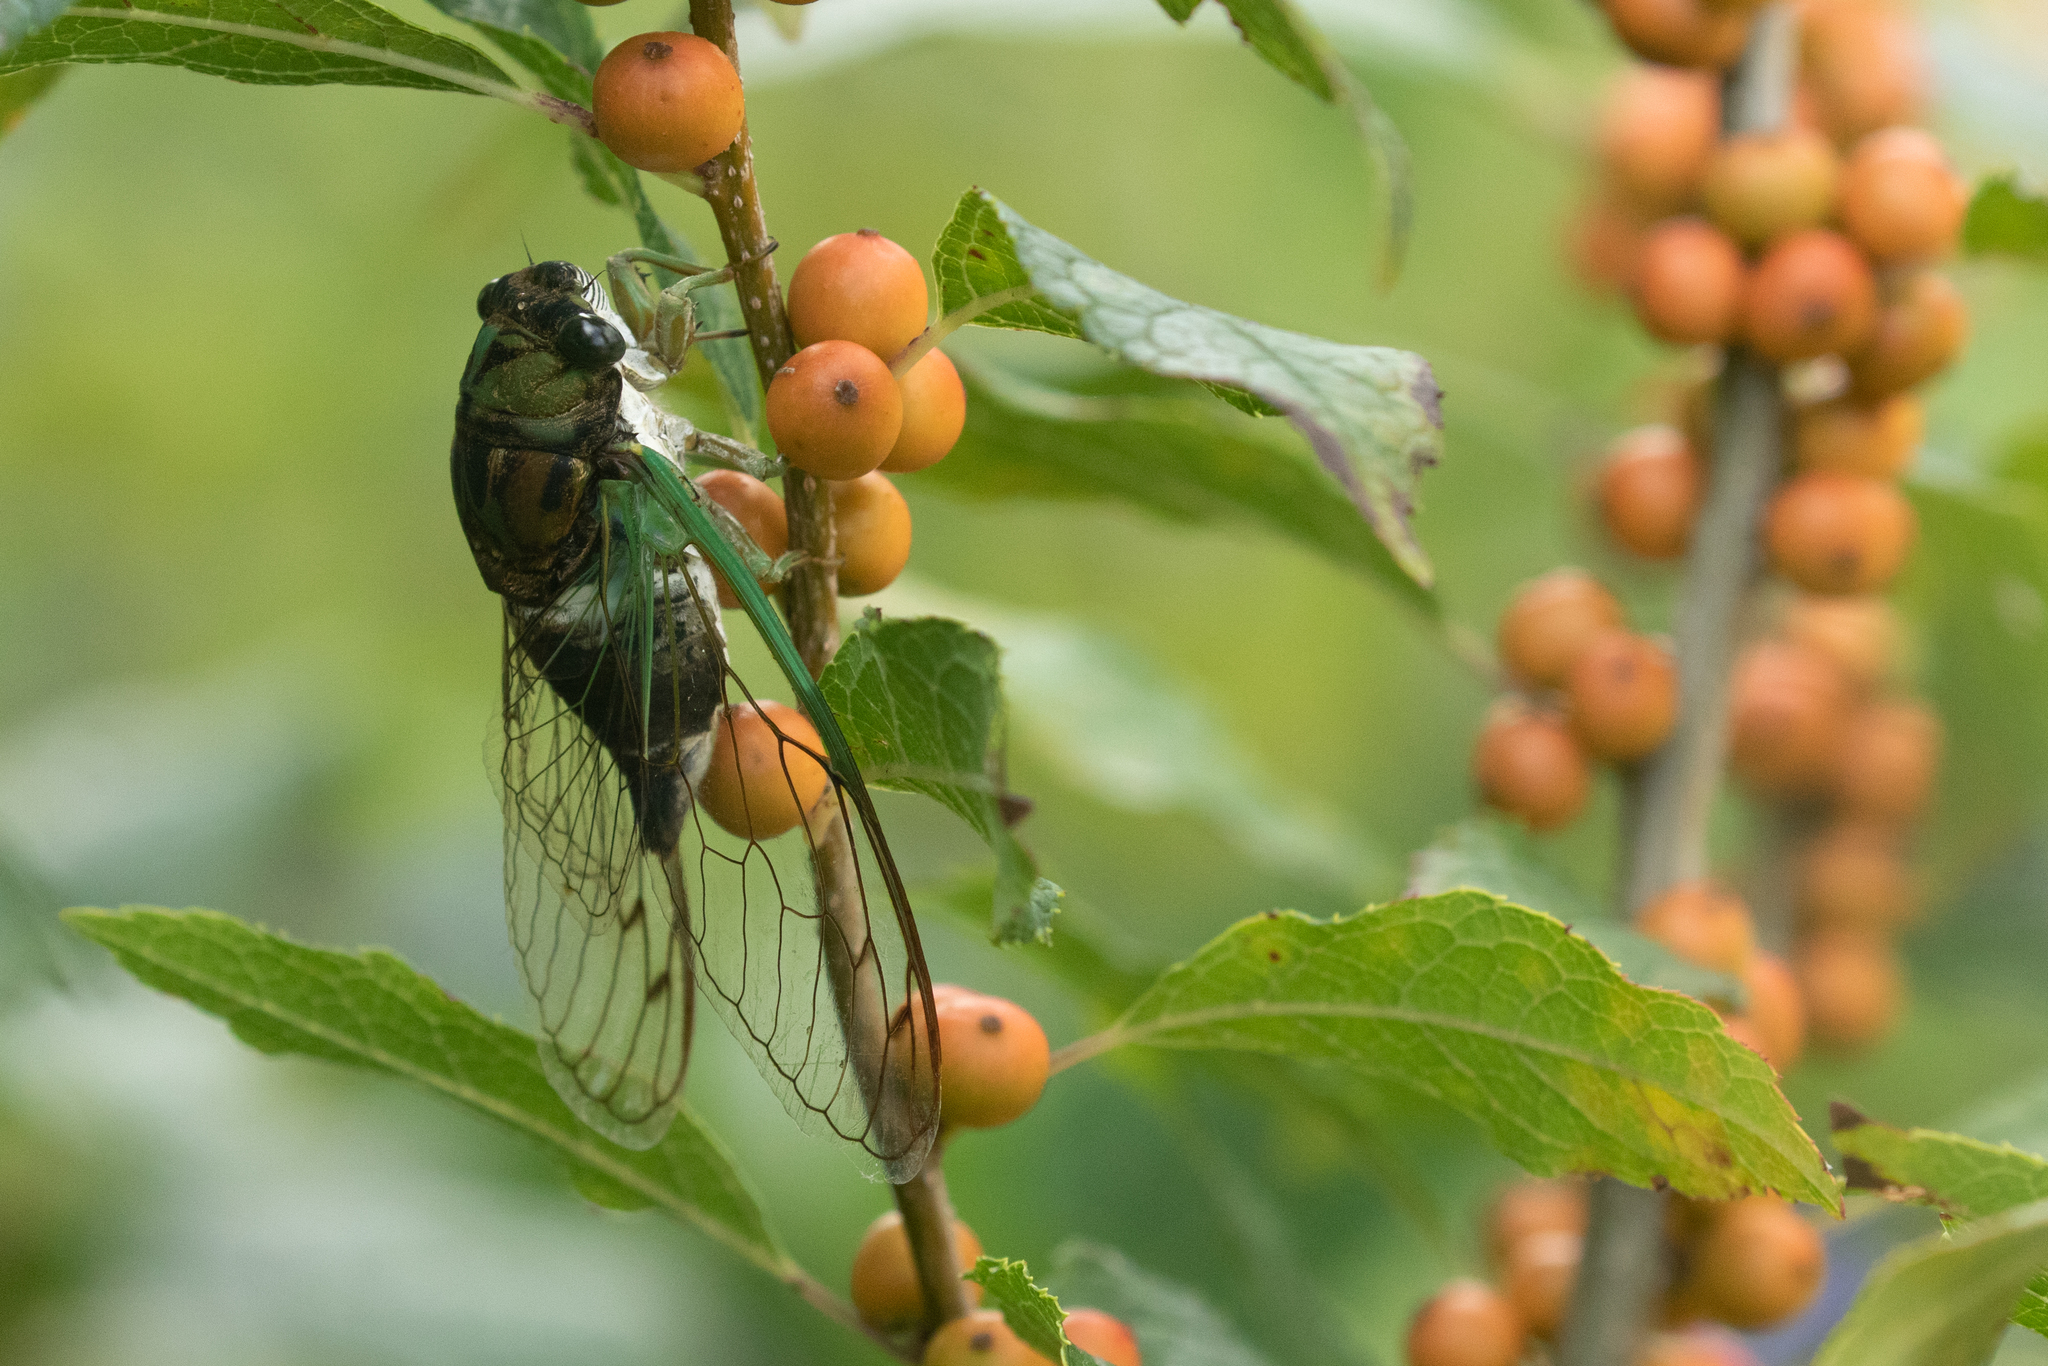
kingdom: Animalia
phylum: Arthropoda
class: Insecta
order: Hemiptera
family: Cicadidae
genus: Neotibicen
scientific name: Neotibicen tibicen
